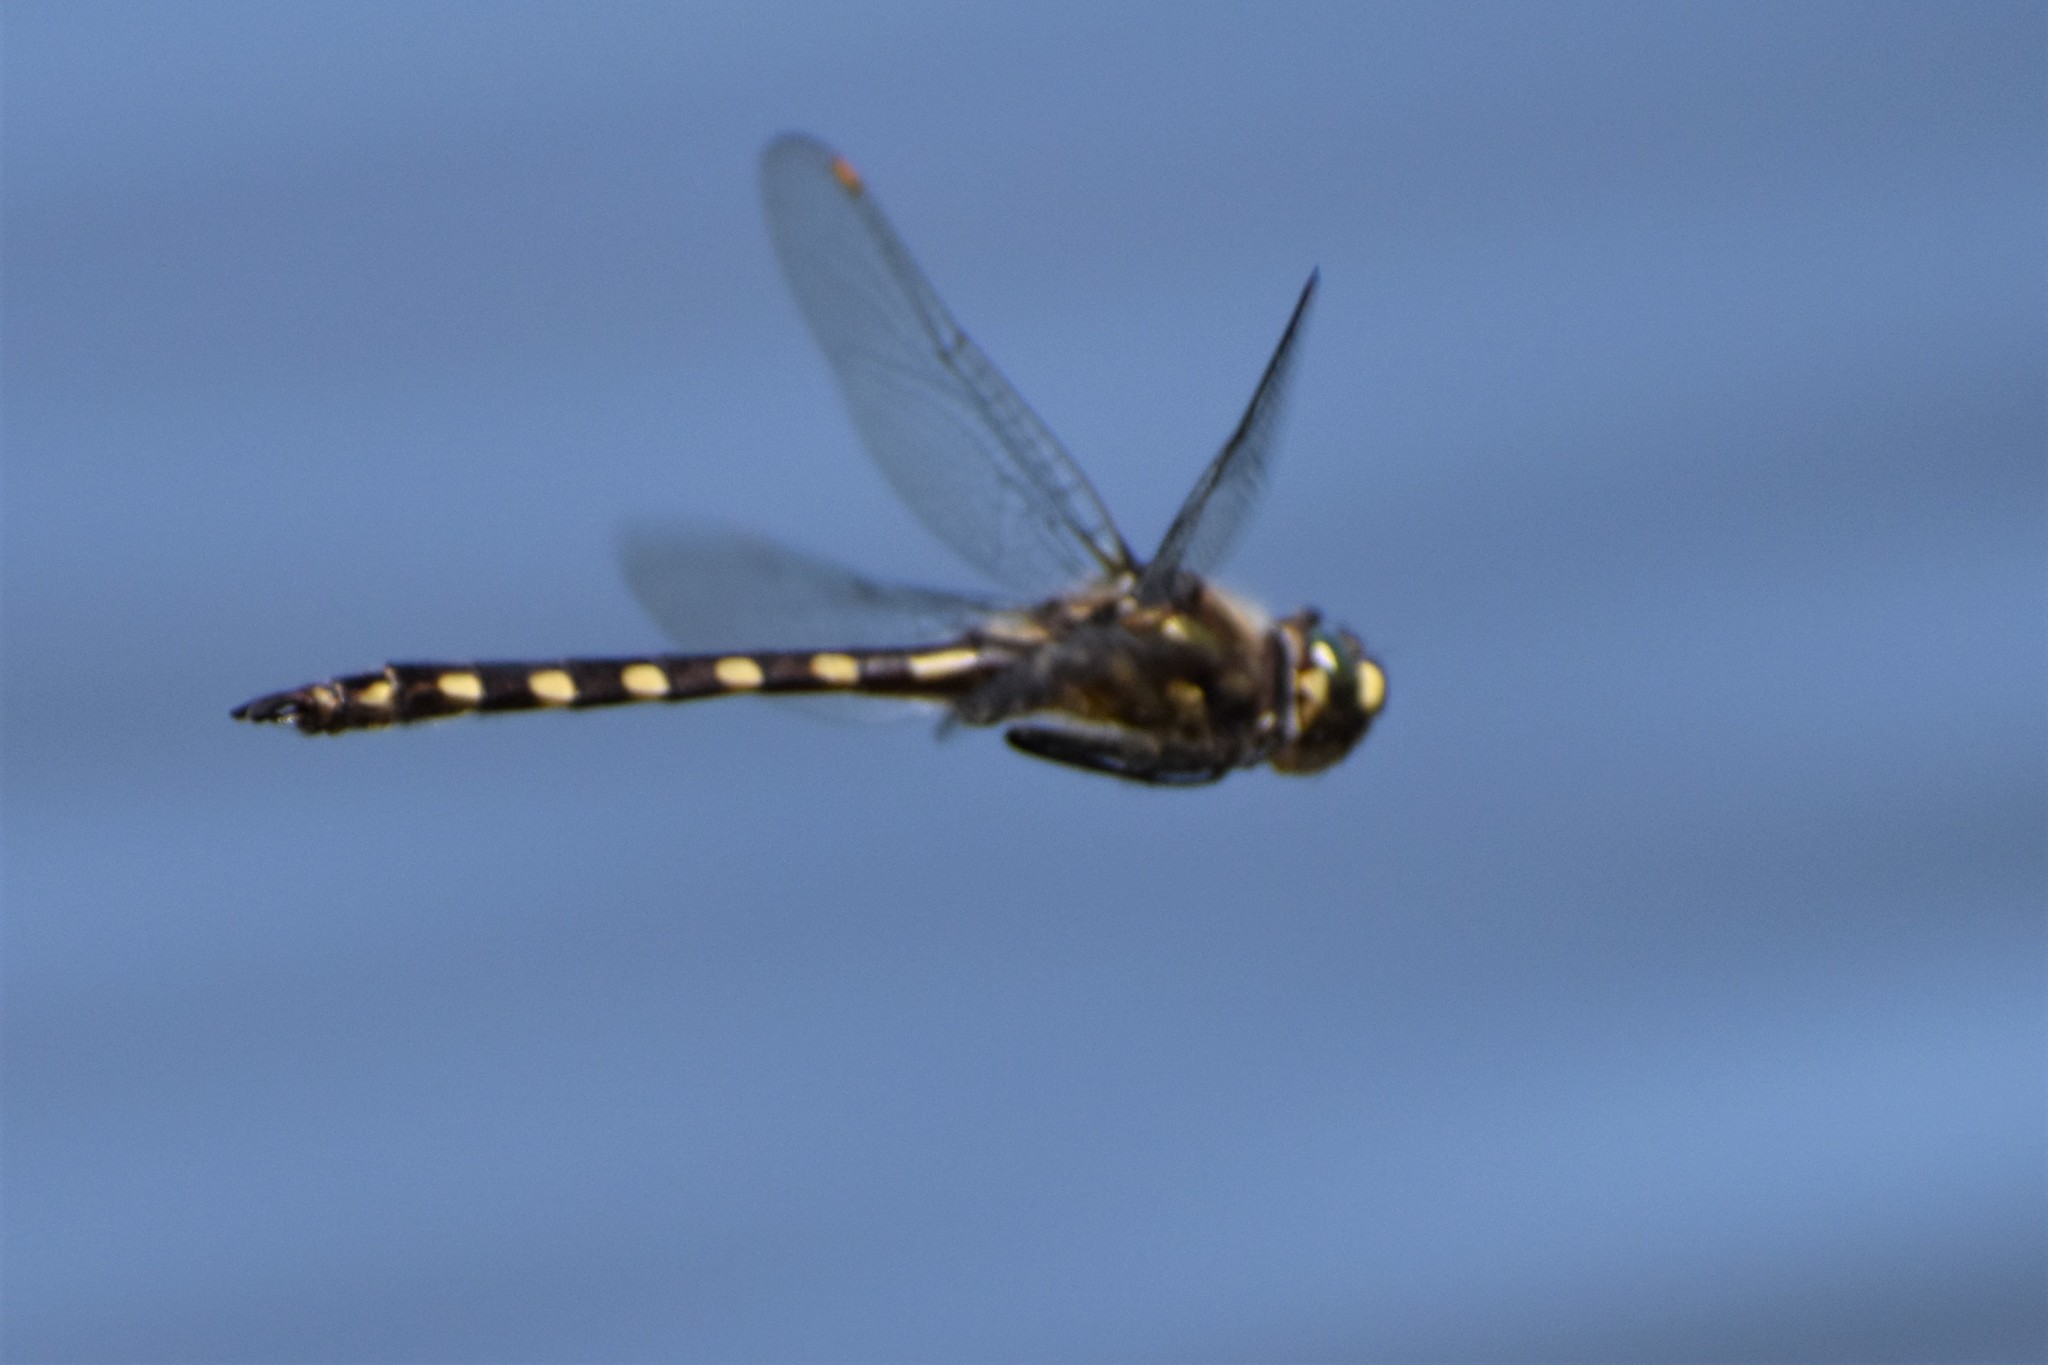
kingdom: Animalia
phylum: Arthropoda
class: Insecta
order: Odonata
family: Corduliidae
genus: Procordulia
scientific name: Procordulia grayi
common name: Yellow spotted dragonfly
